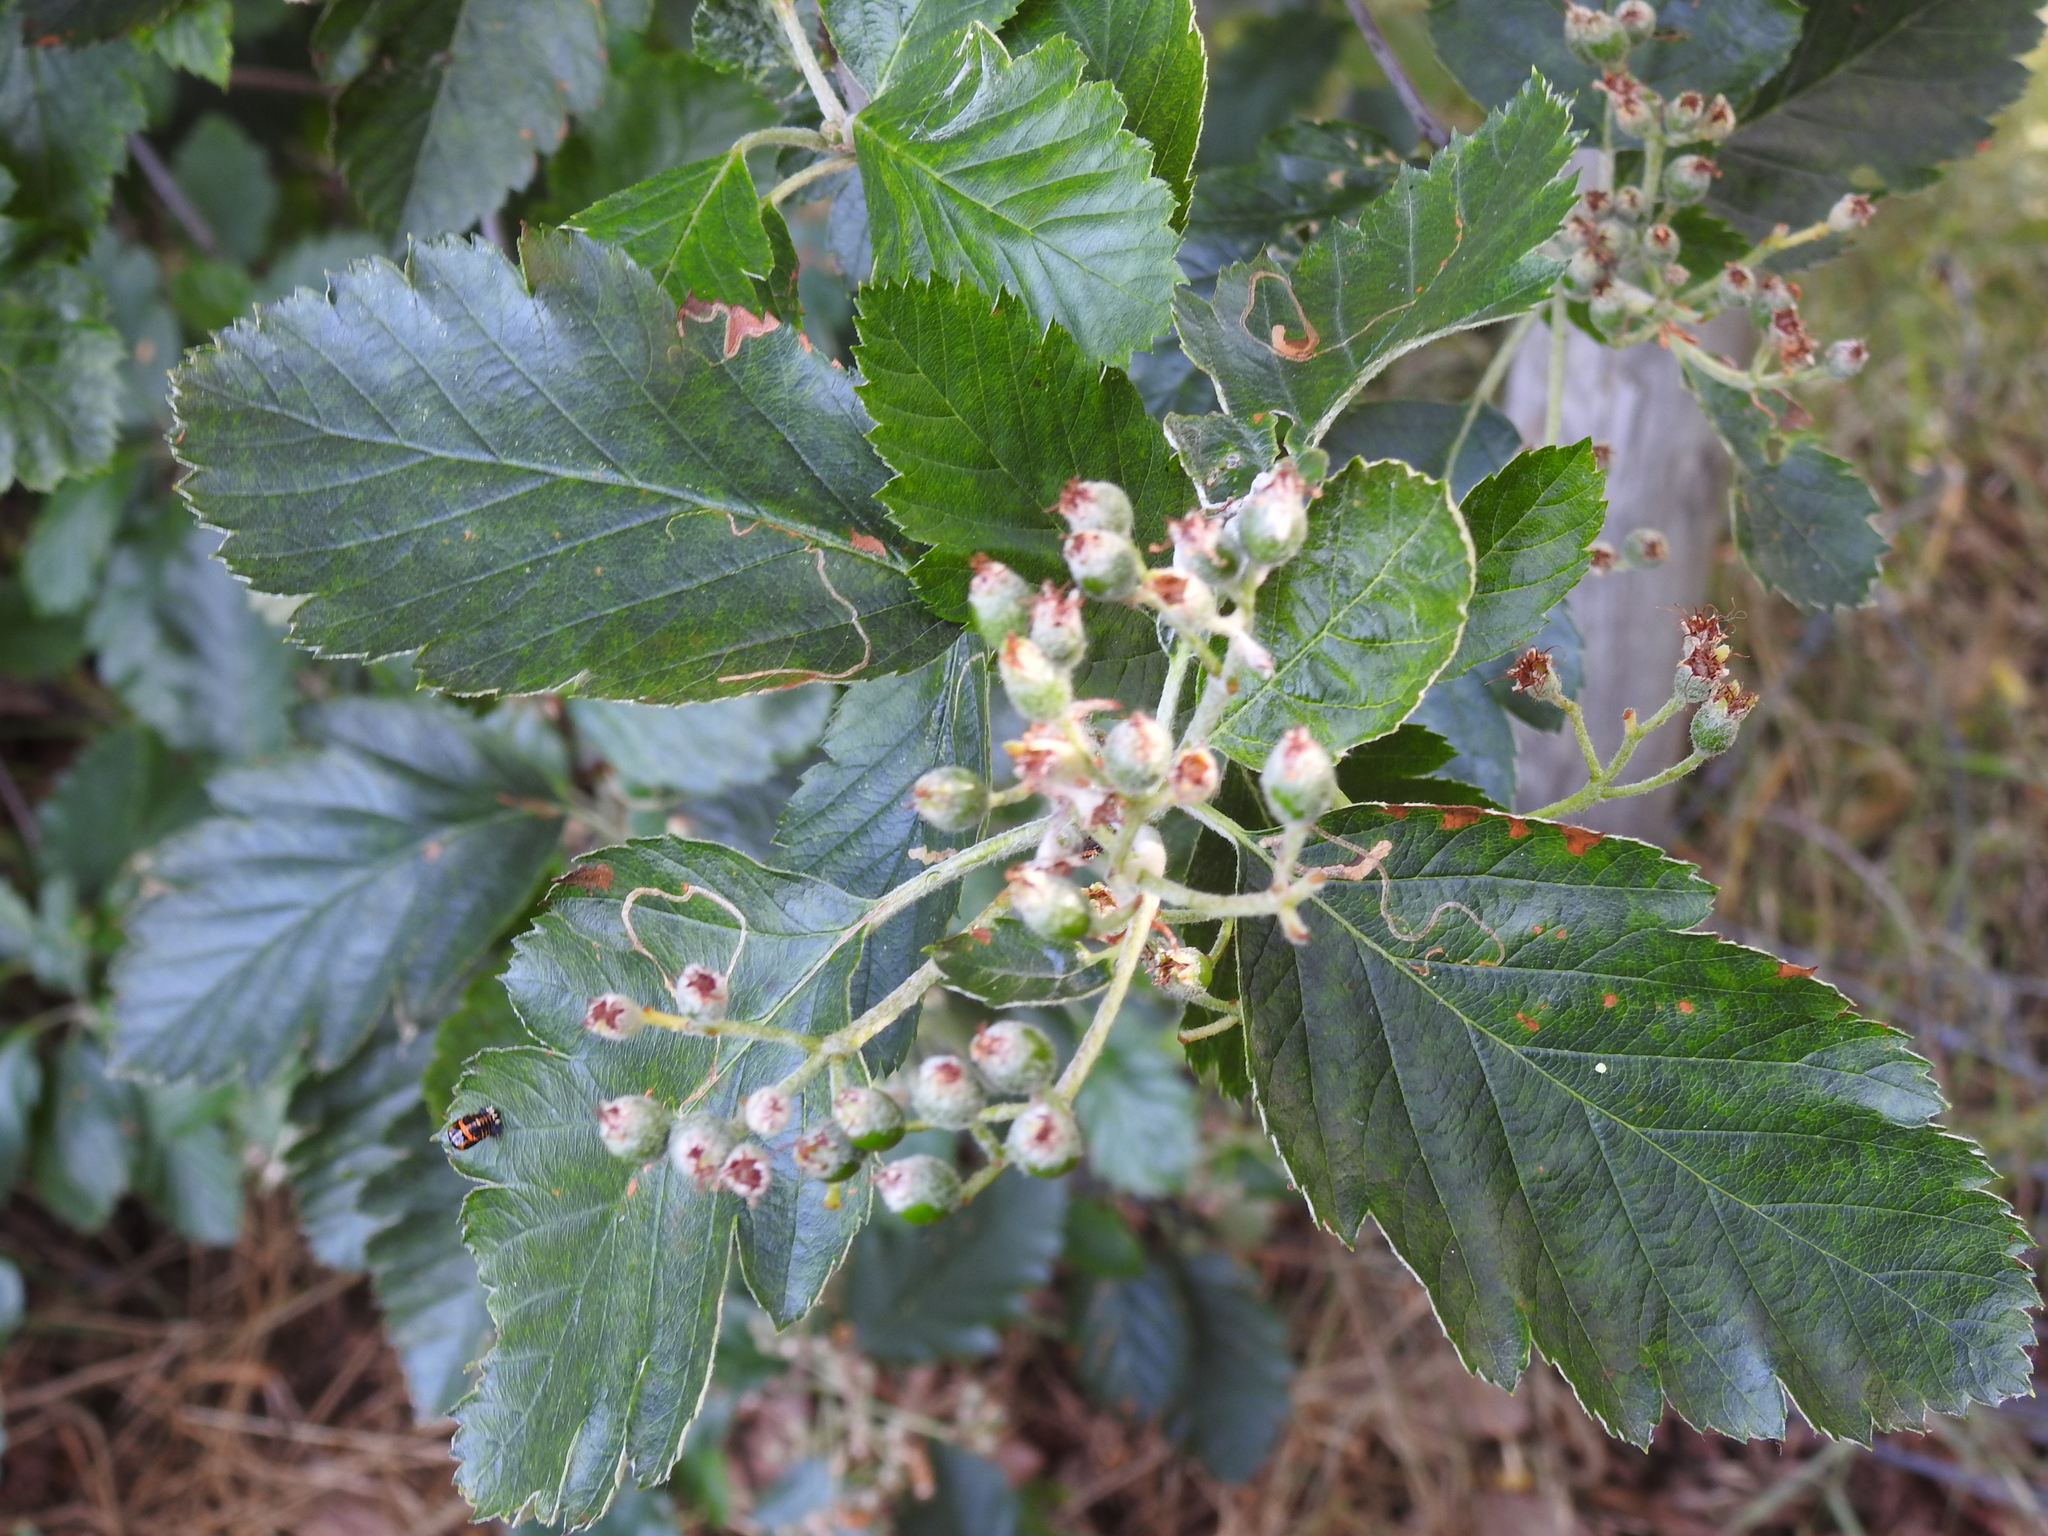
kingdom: Plantae
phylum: Tracheophyta
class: Magnoliopsida
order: Rosales
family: Rosaceae
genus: Scandosorbus
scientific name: Scandosorbus intermedia
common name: Swedish whitebeam
